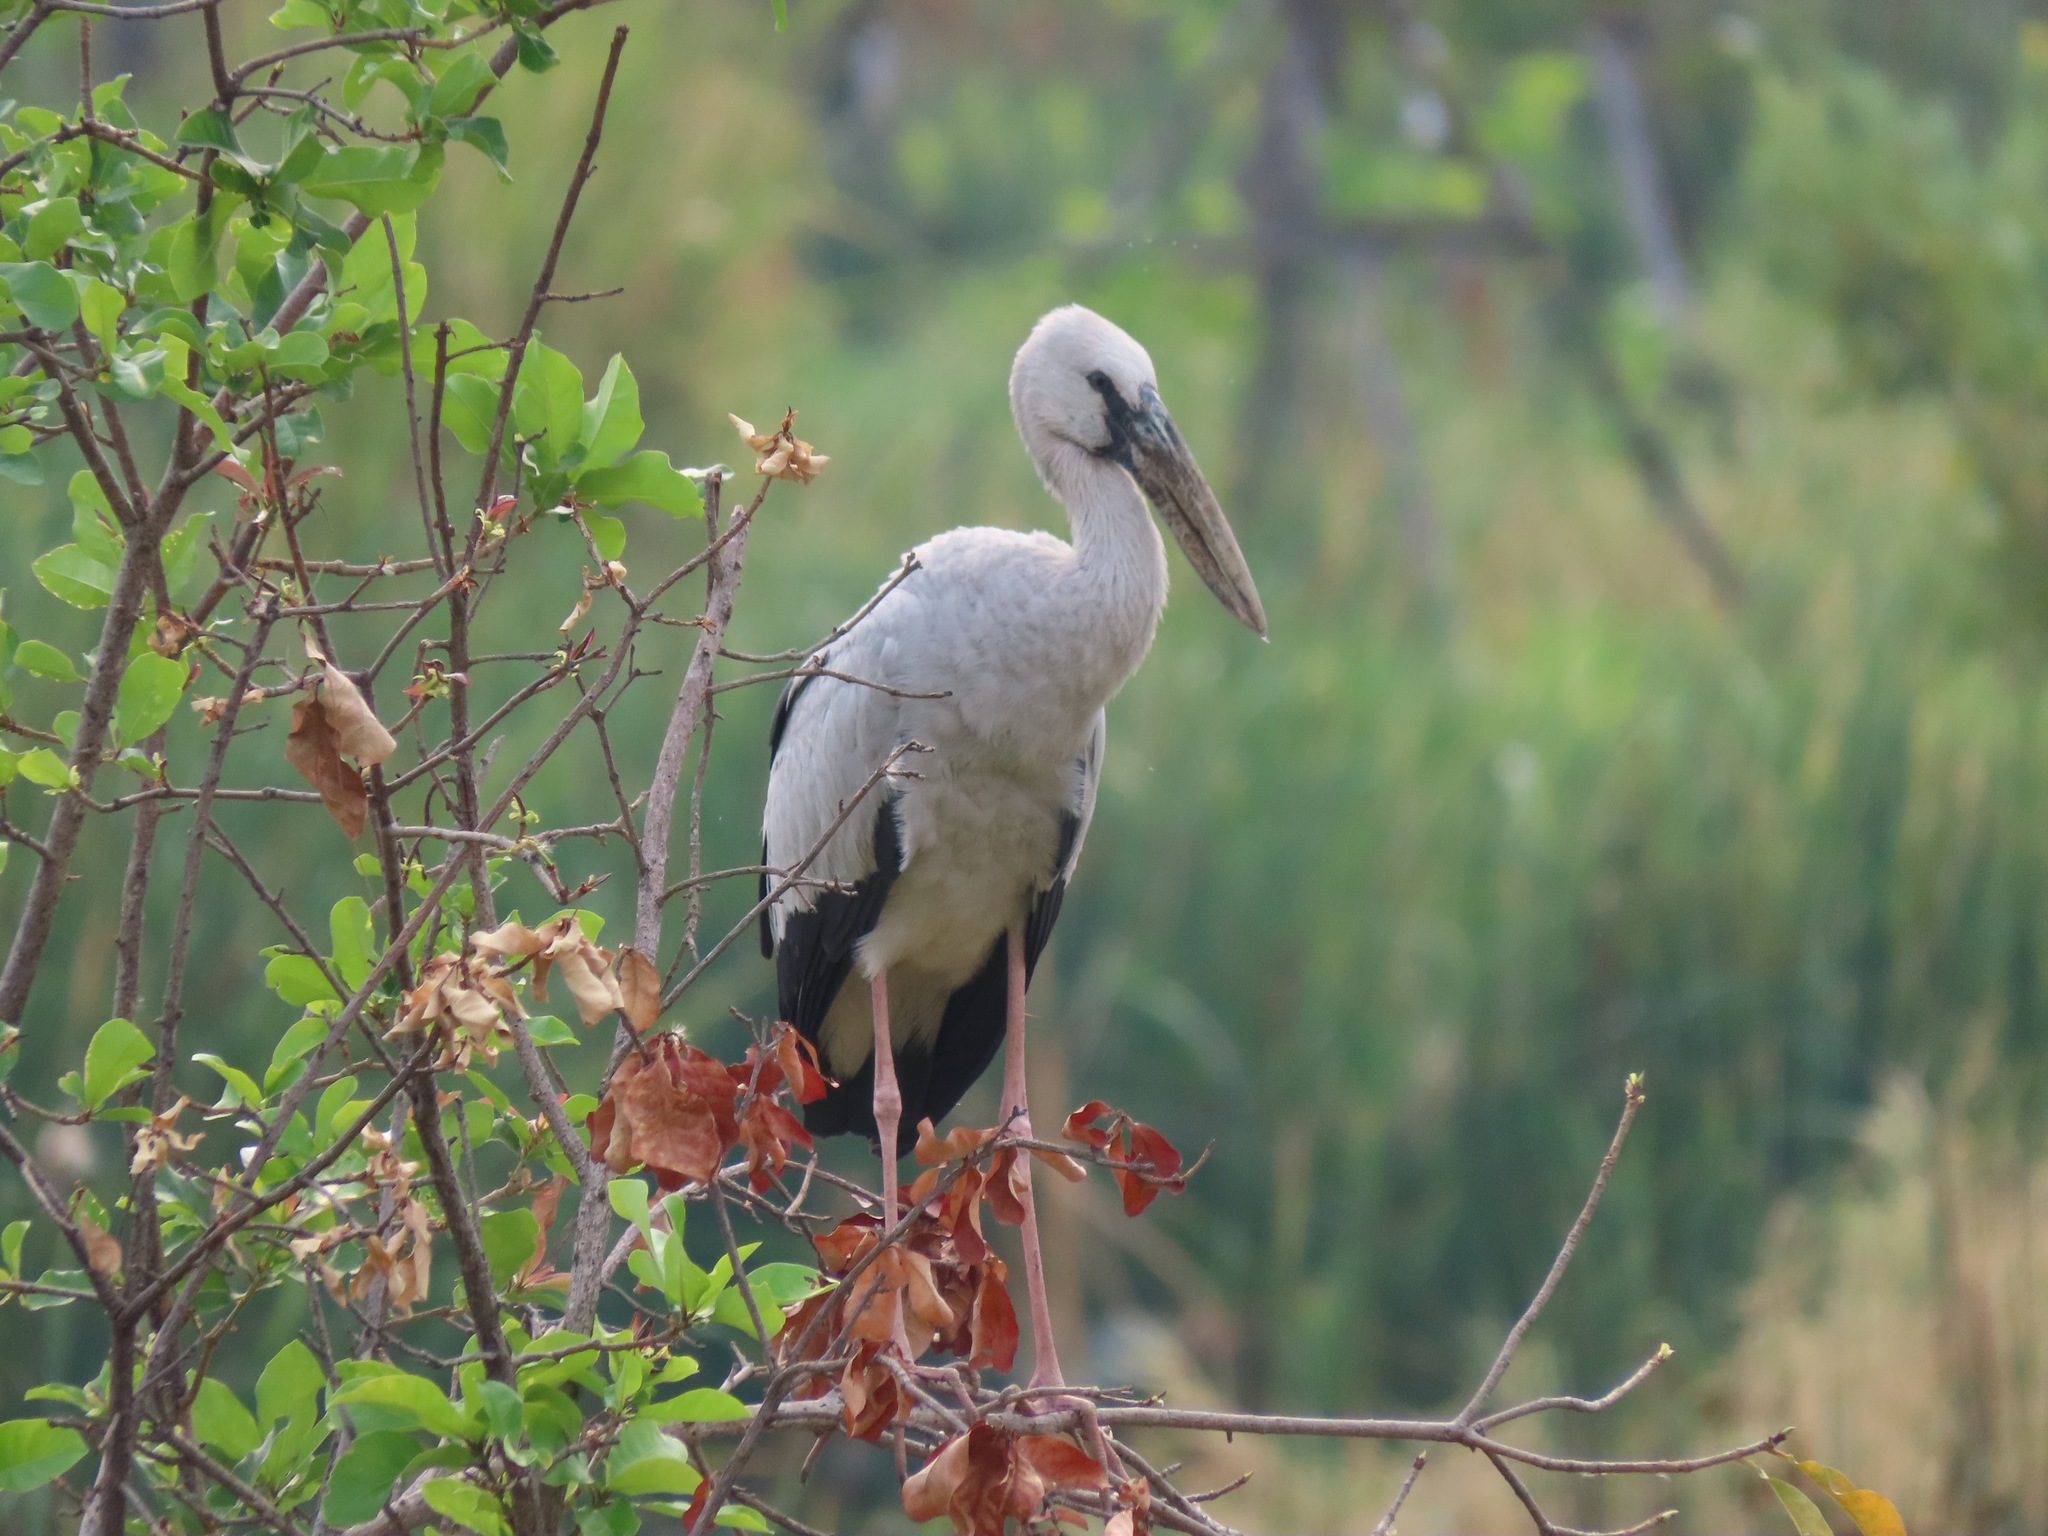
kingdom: Animalia
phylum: Chordata
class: Aves
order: Ciconiiformes
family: Ciconiidae
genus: Anastomus
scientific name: Anastomus oscitans
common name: Asian openbill
